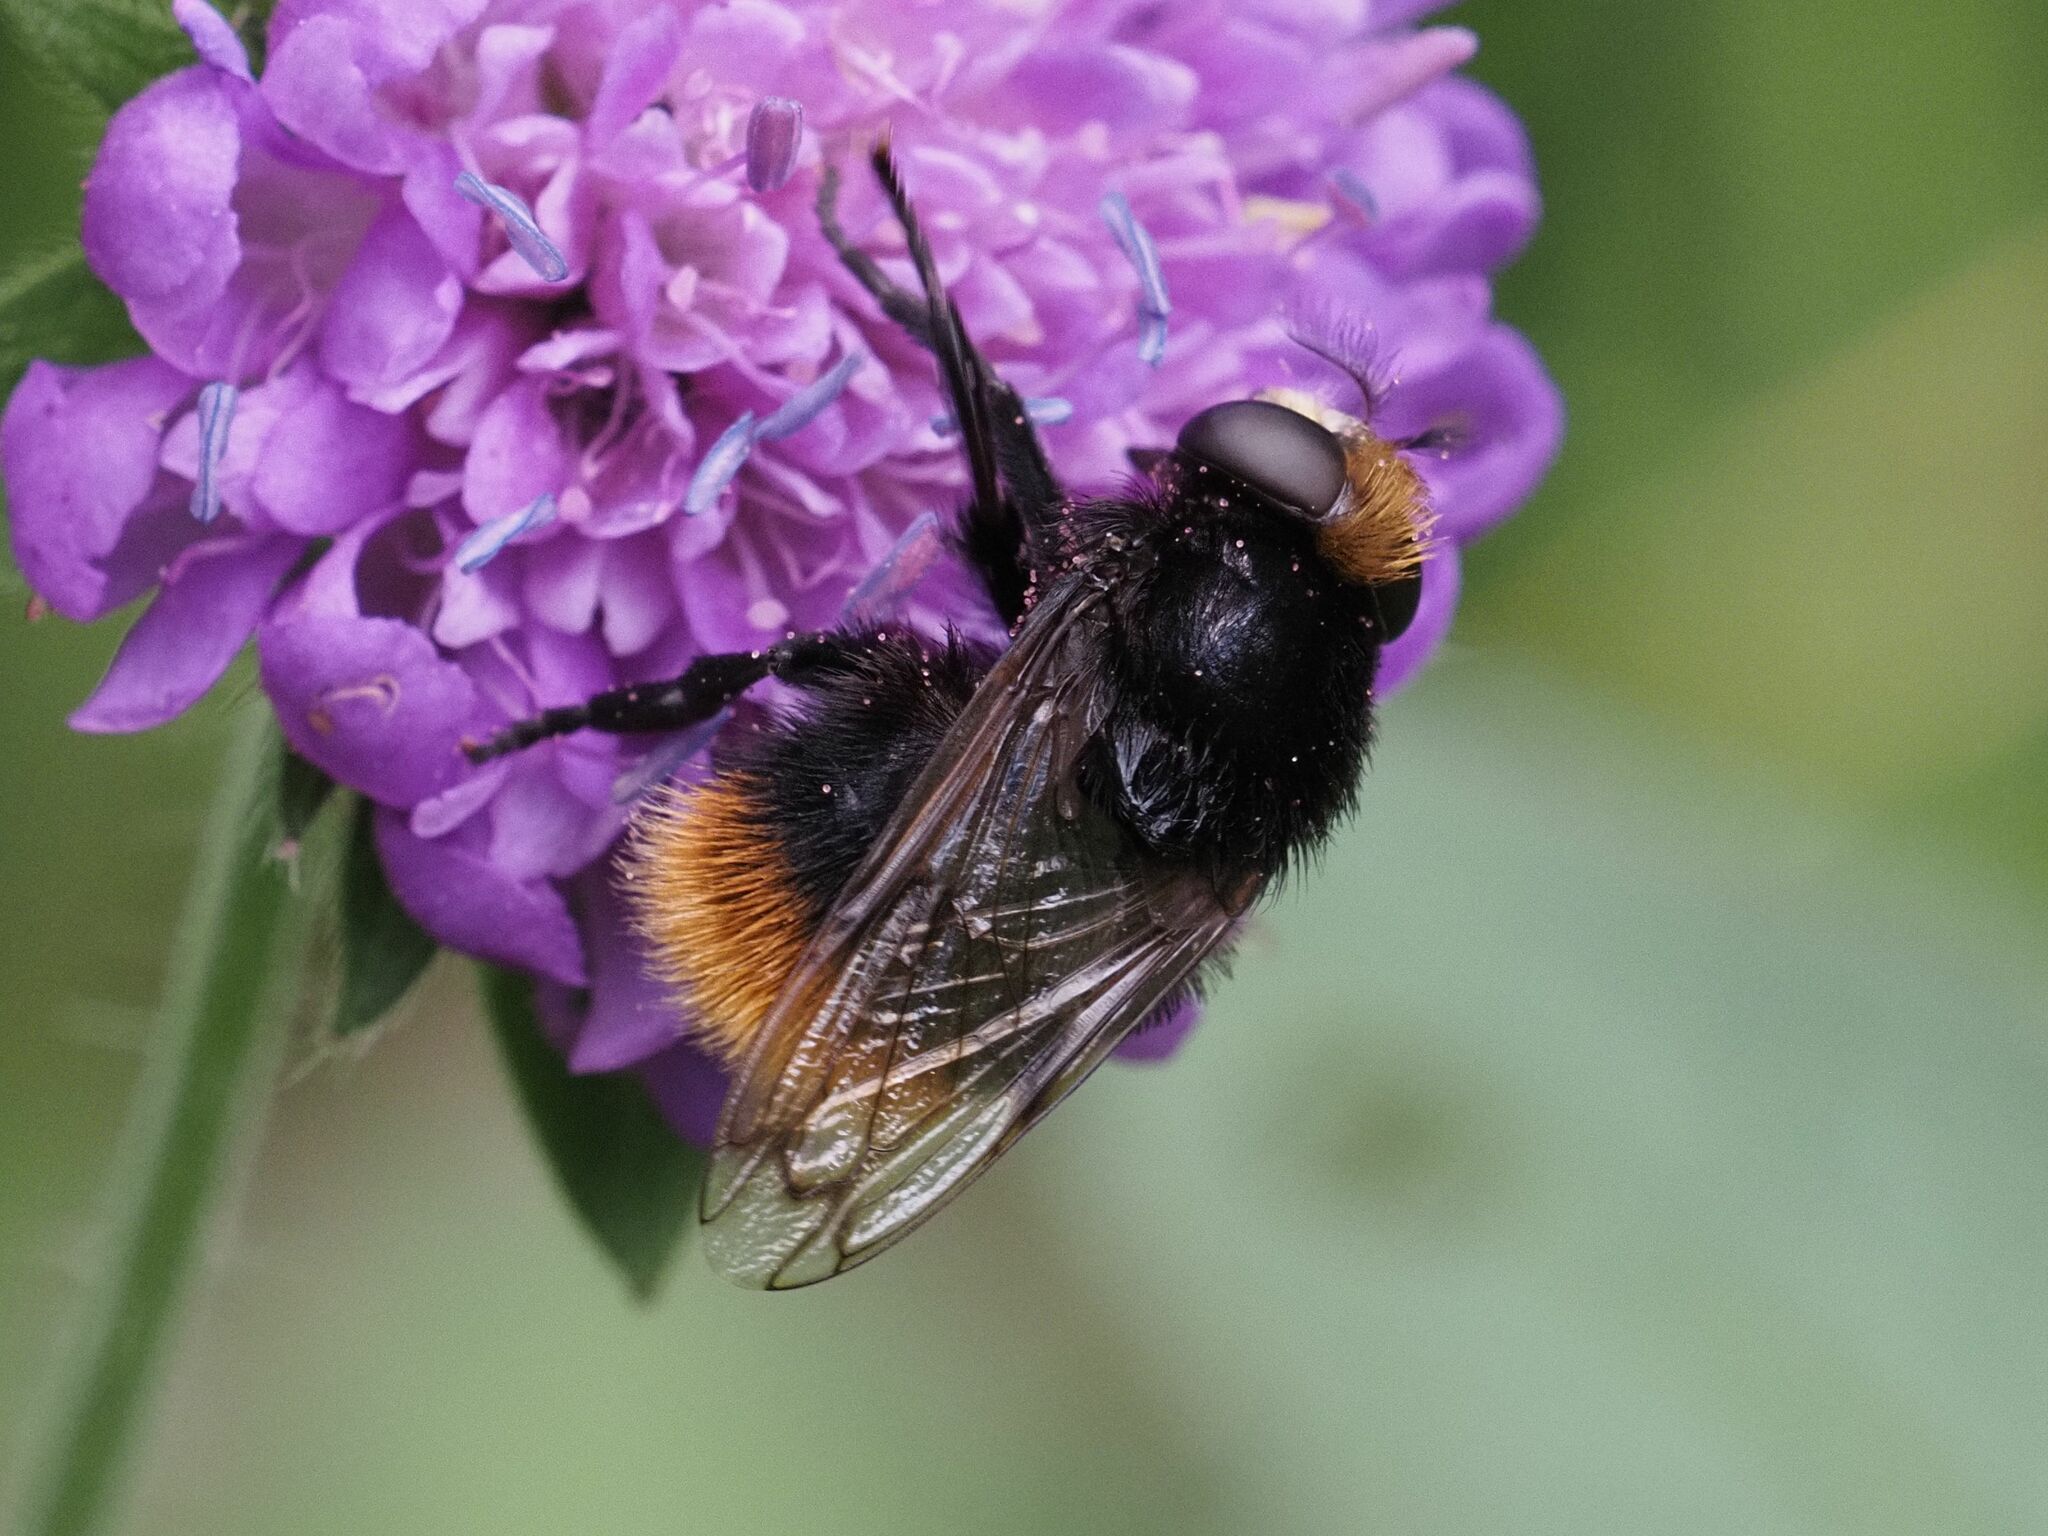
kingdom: Animalia
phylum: Arthropoda
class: Insecta
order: Diptera
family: Syrphidae
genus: Volucella
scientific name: Volucella bombylans
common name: Bumble bee hover fly
